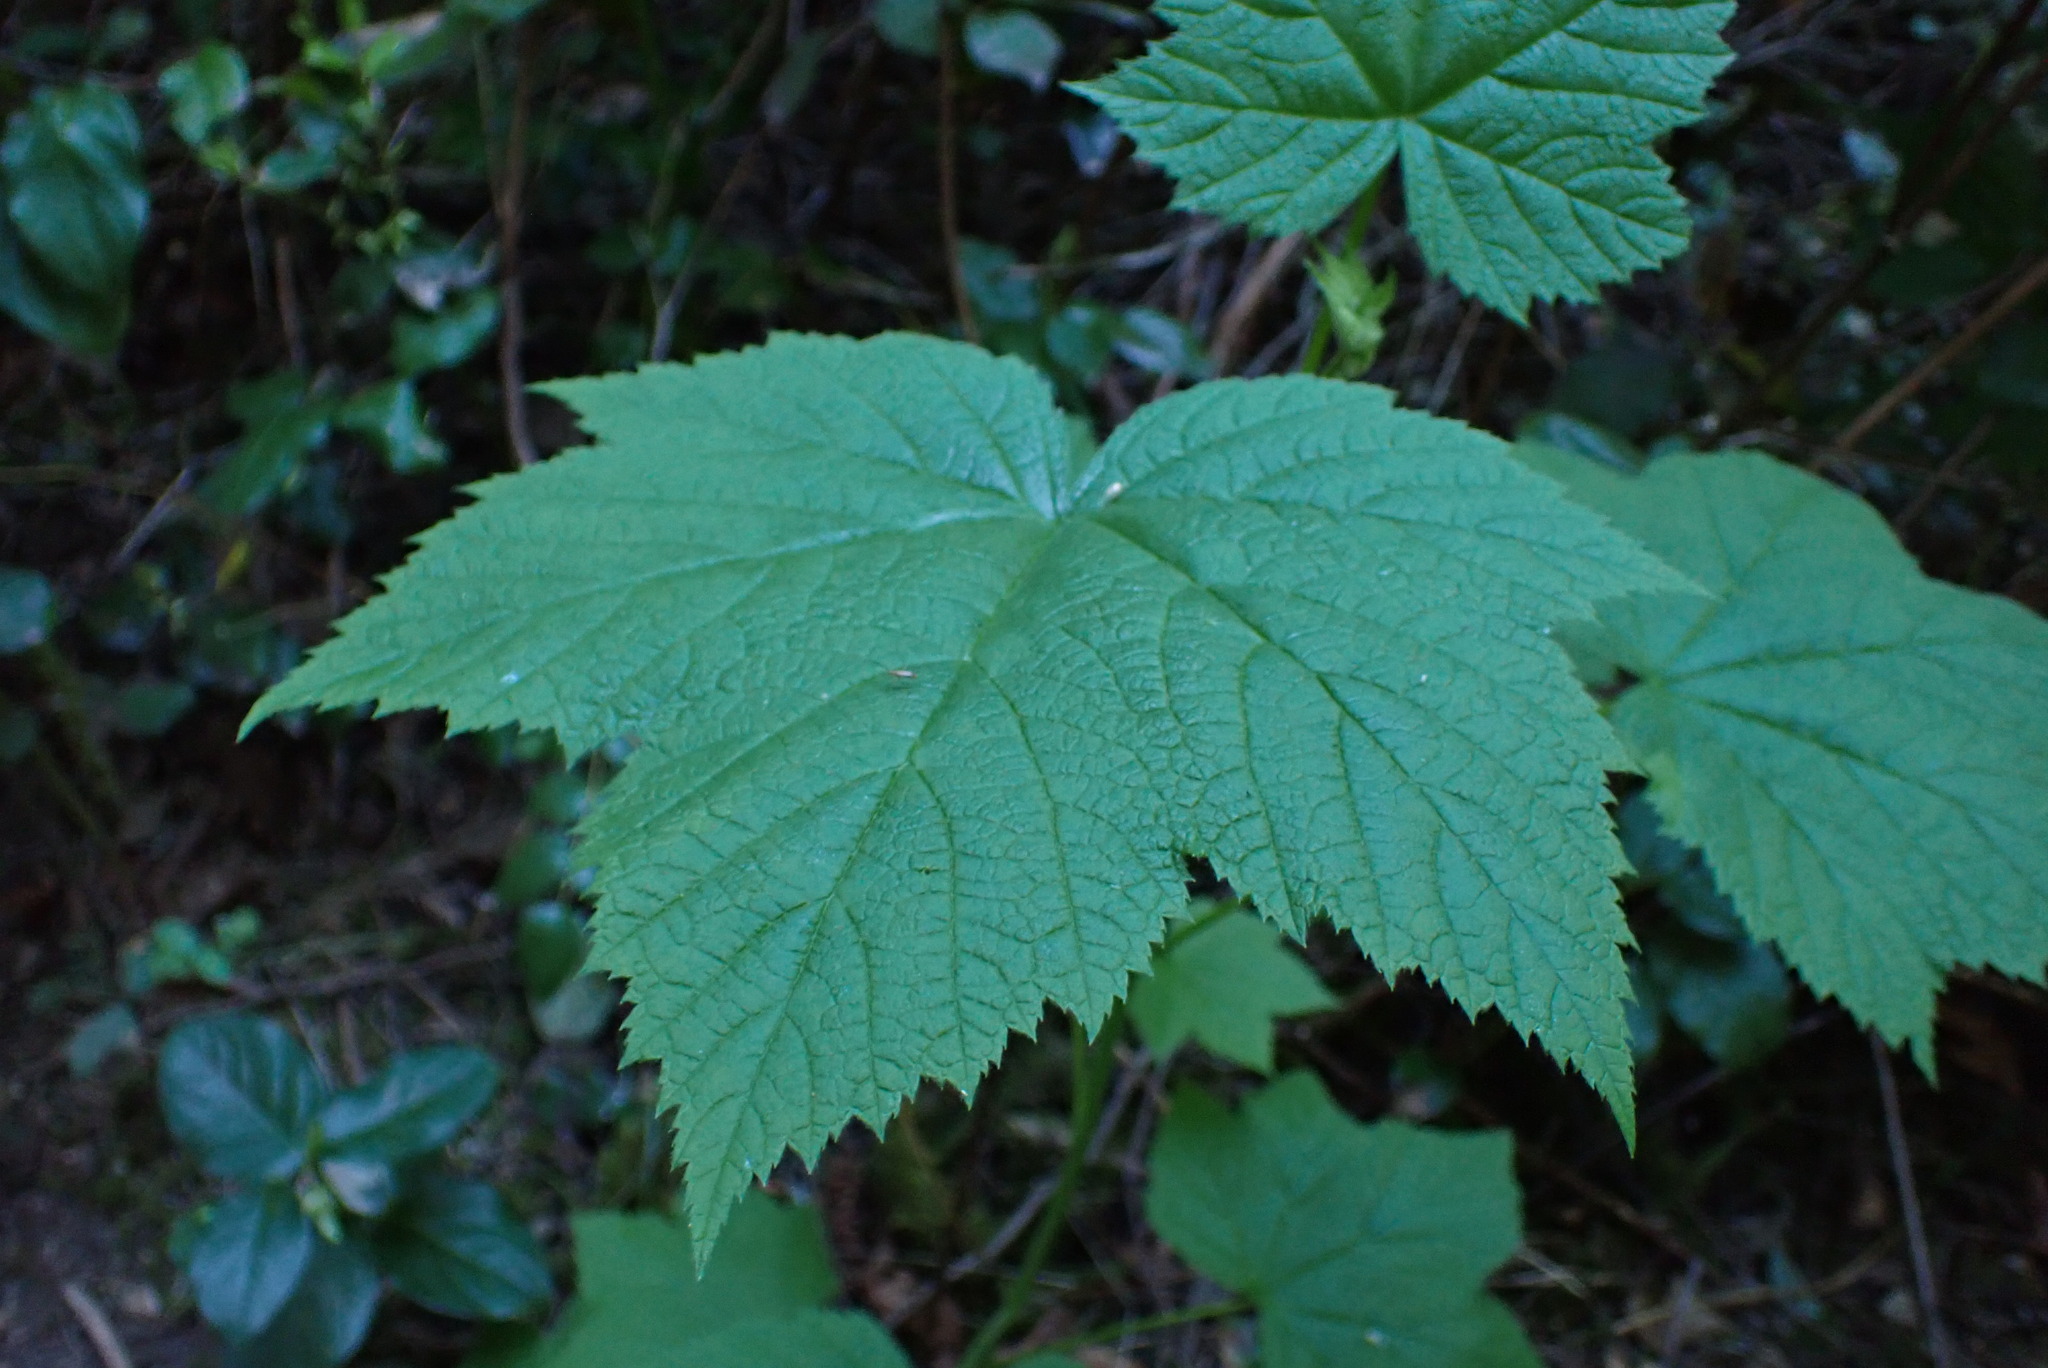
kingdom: Plantae
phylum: Tracheophyta
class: Magnoliopsida
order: Rosales
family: Rosaceae
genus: Rubus
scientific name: Rubus parviflorus
